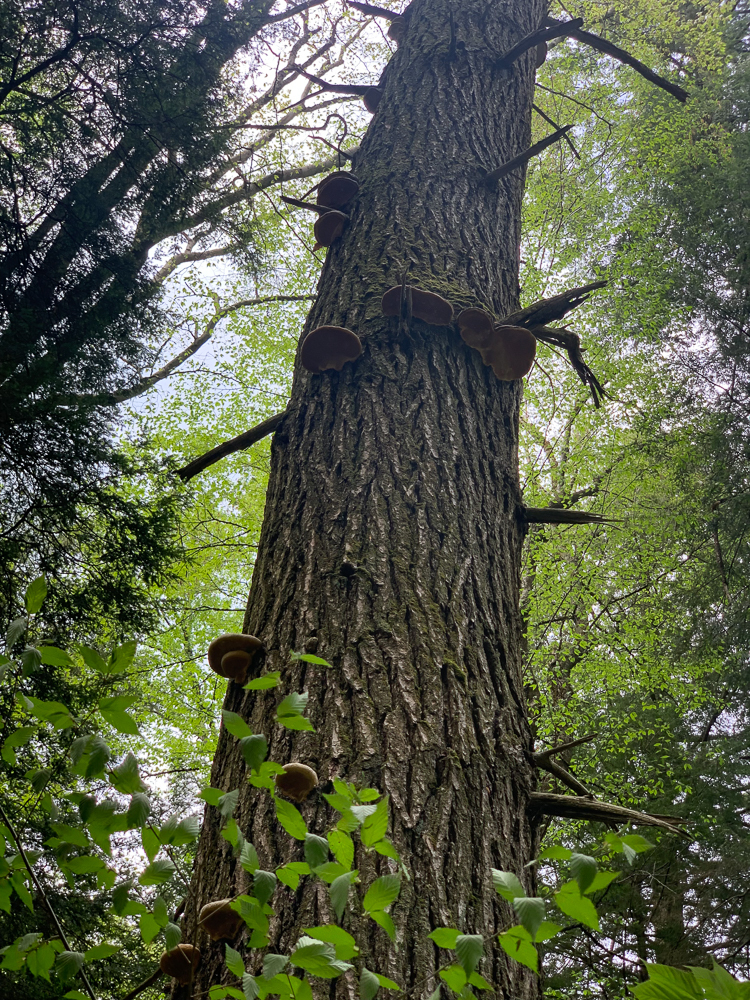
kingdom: Fungi
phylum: Basidiomycota
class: Agaricomycetes
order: Polyporales
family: Fomitopsidaceae
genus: Fomitopsis
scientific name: Fomitopsis mounceae
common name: Northern red belt
